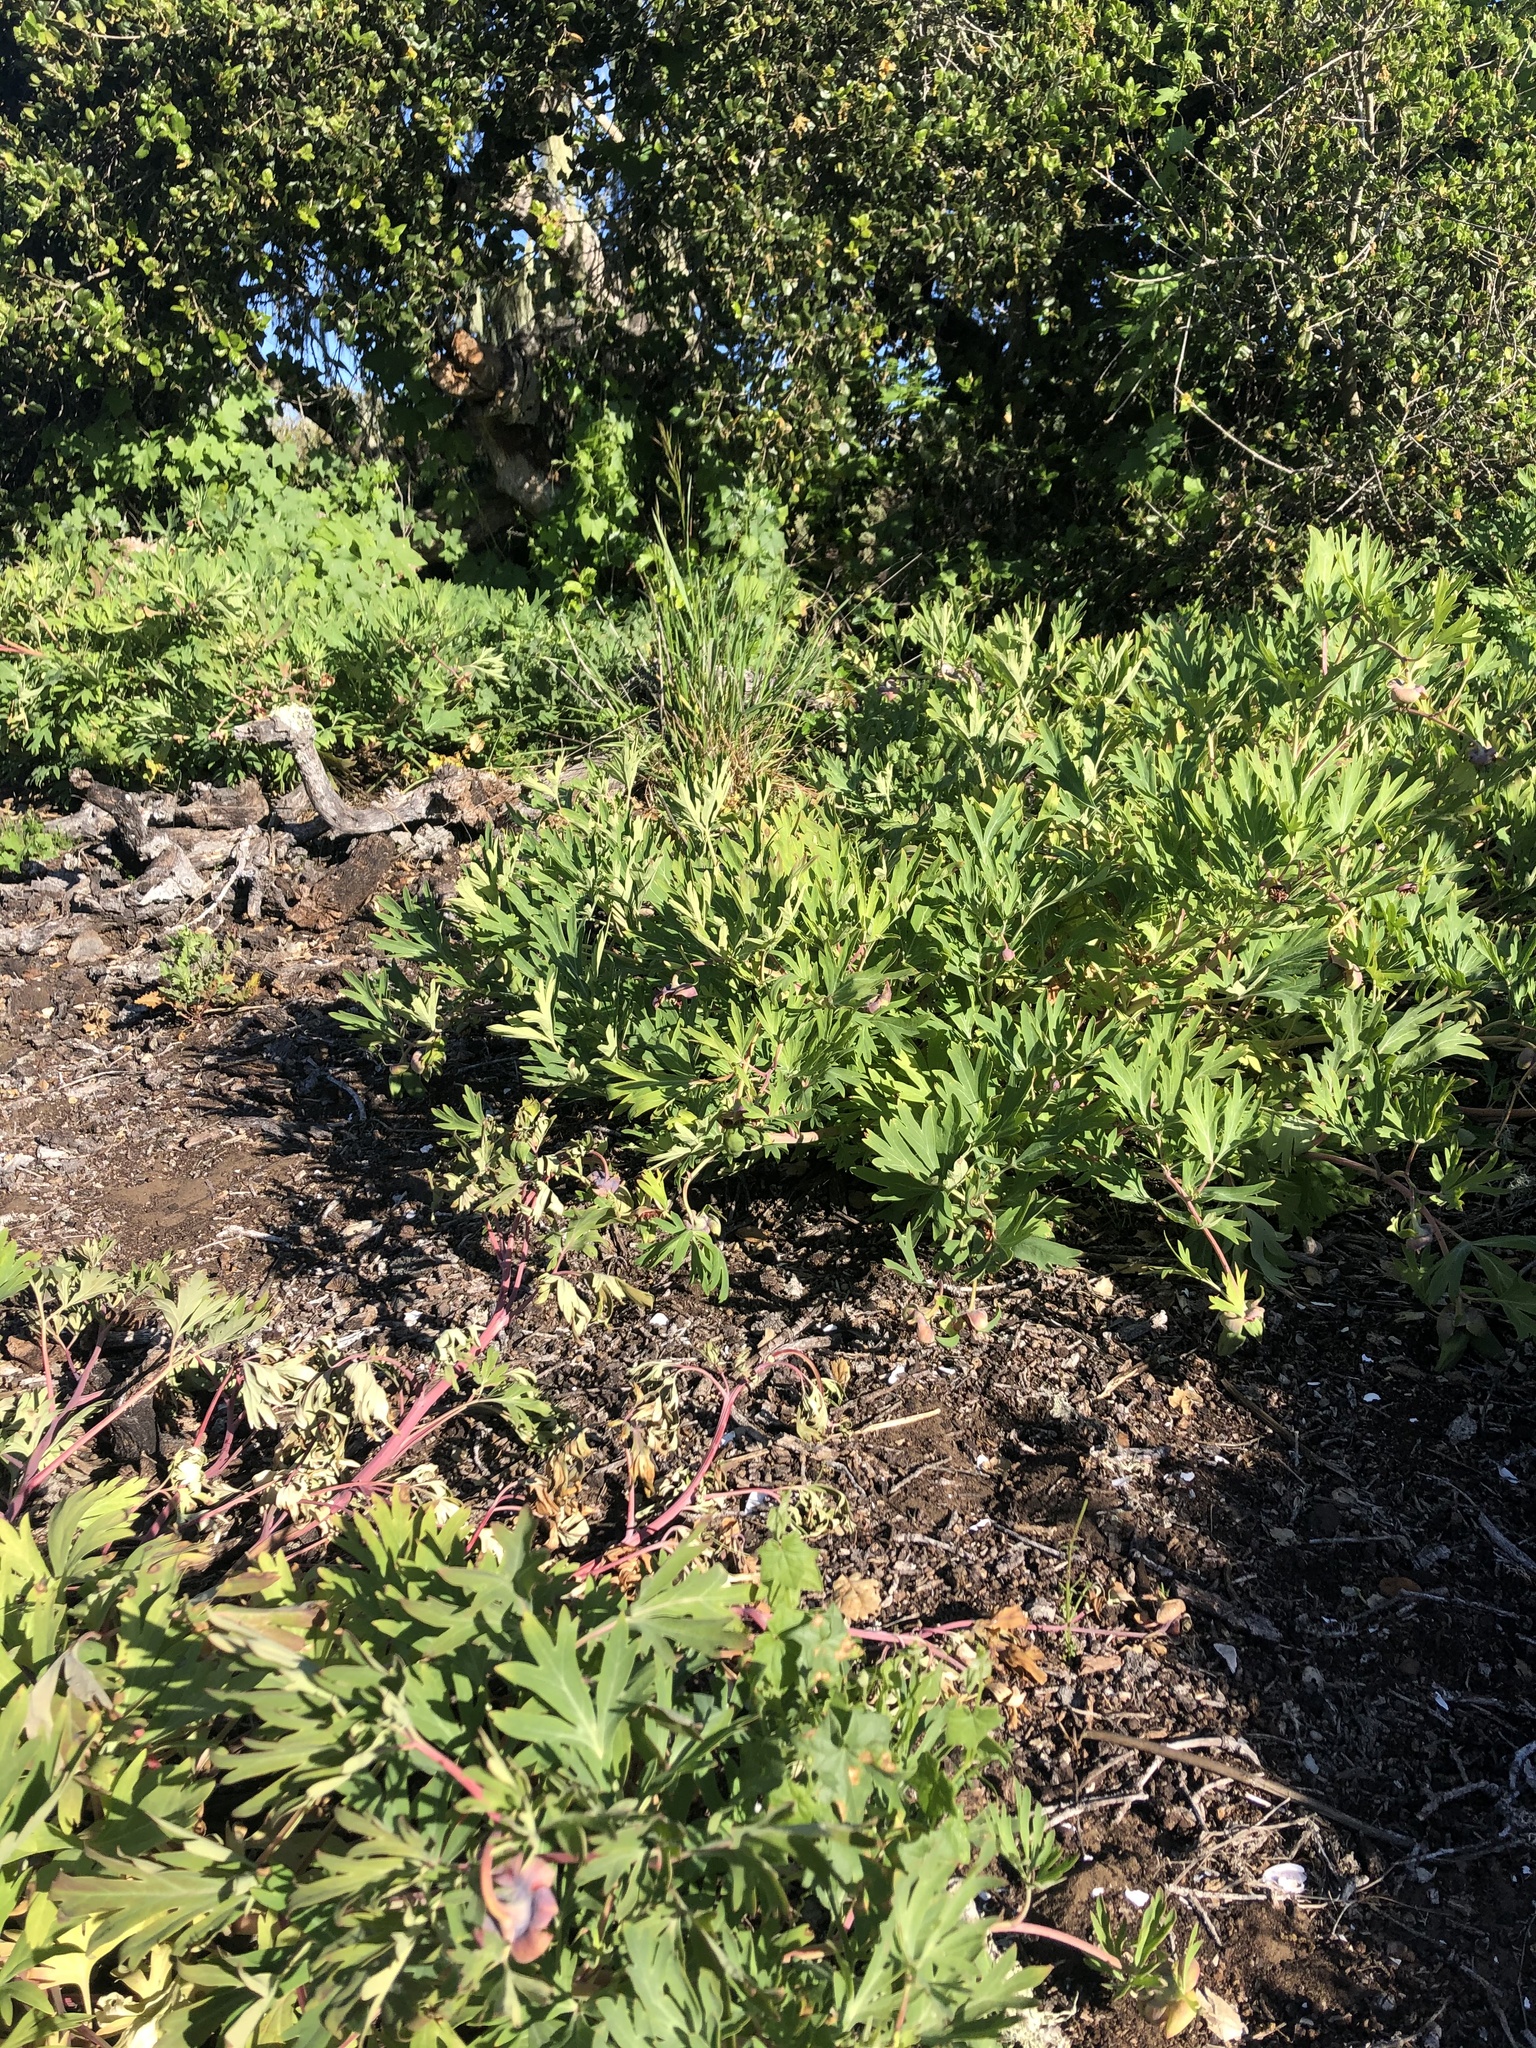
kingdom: Plantae
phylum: Tracheophyta
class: Magnoliopsida
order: Saxifragales
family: Paeoniaceae
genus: Paeonia
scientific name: Paeonia californica
